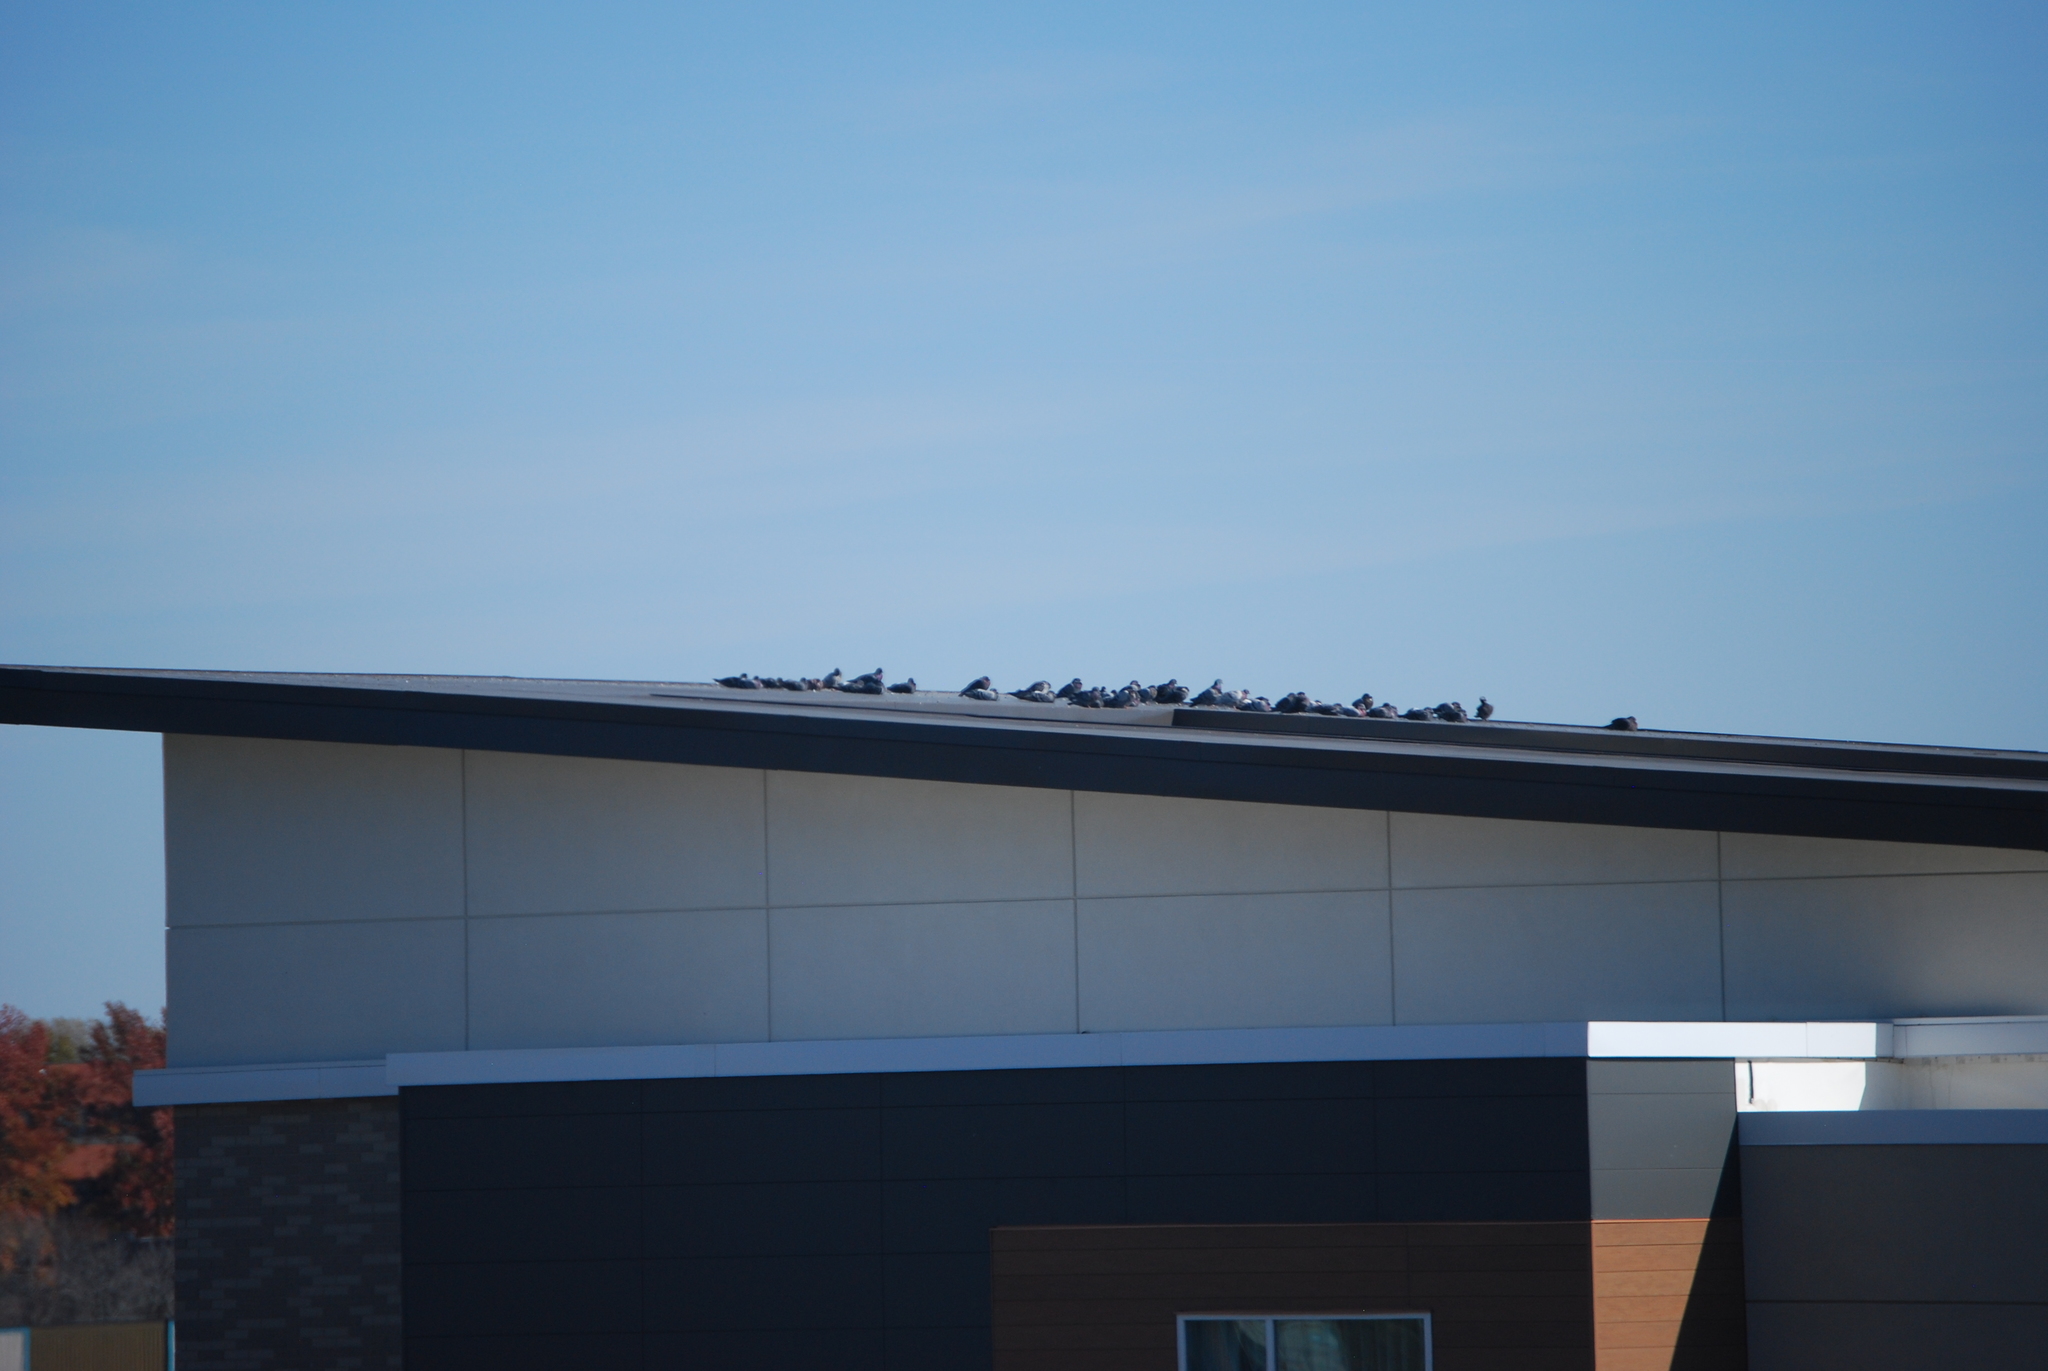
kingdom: Animalia
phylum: Chordata
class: Aves
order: Columbiformes
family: Columbidae
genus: Columba
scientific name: Columba livia
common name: Rock pigeon
